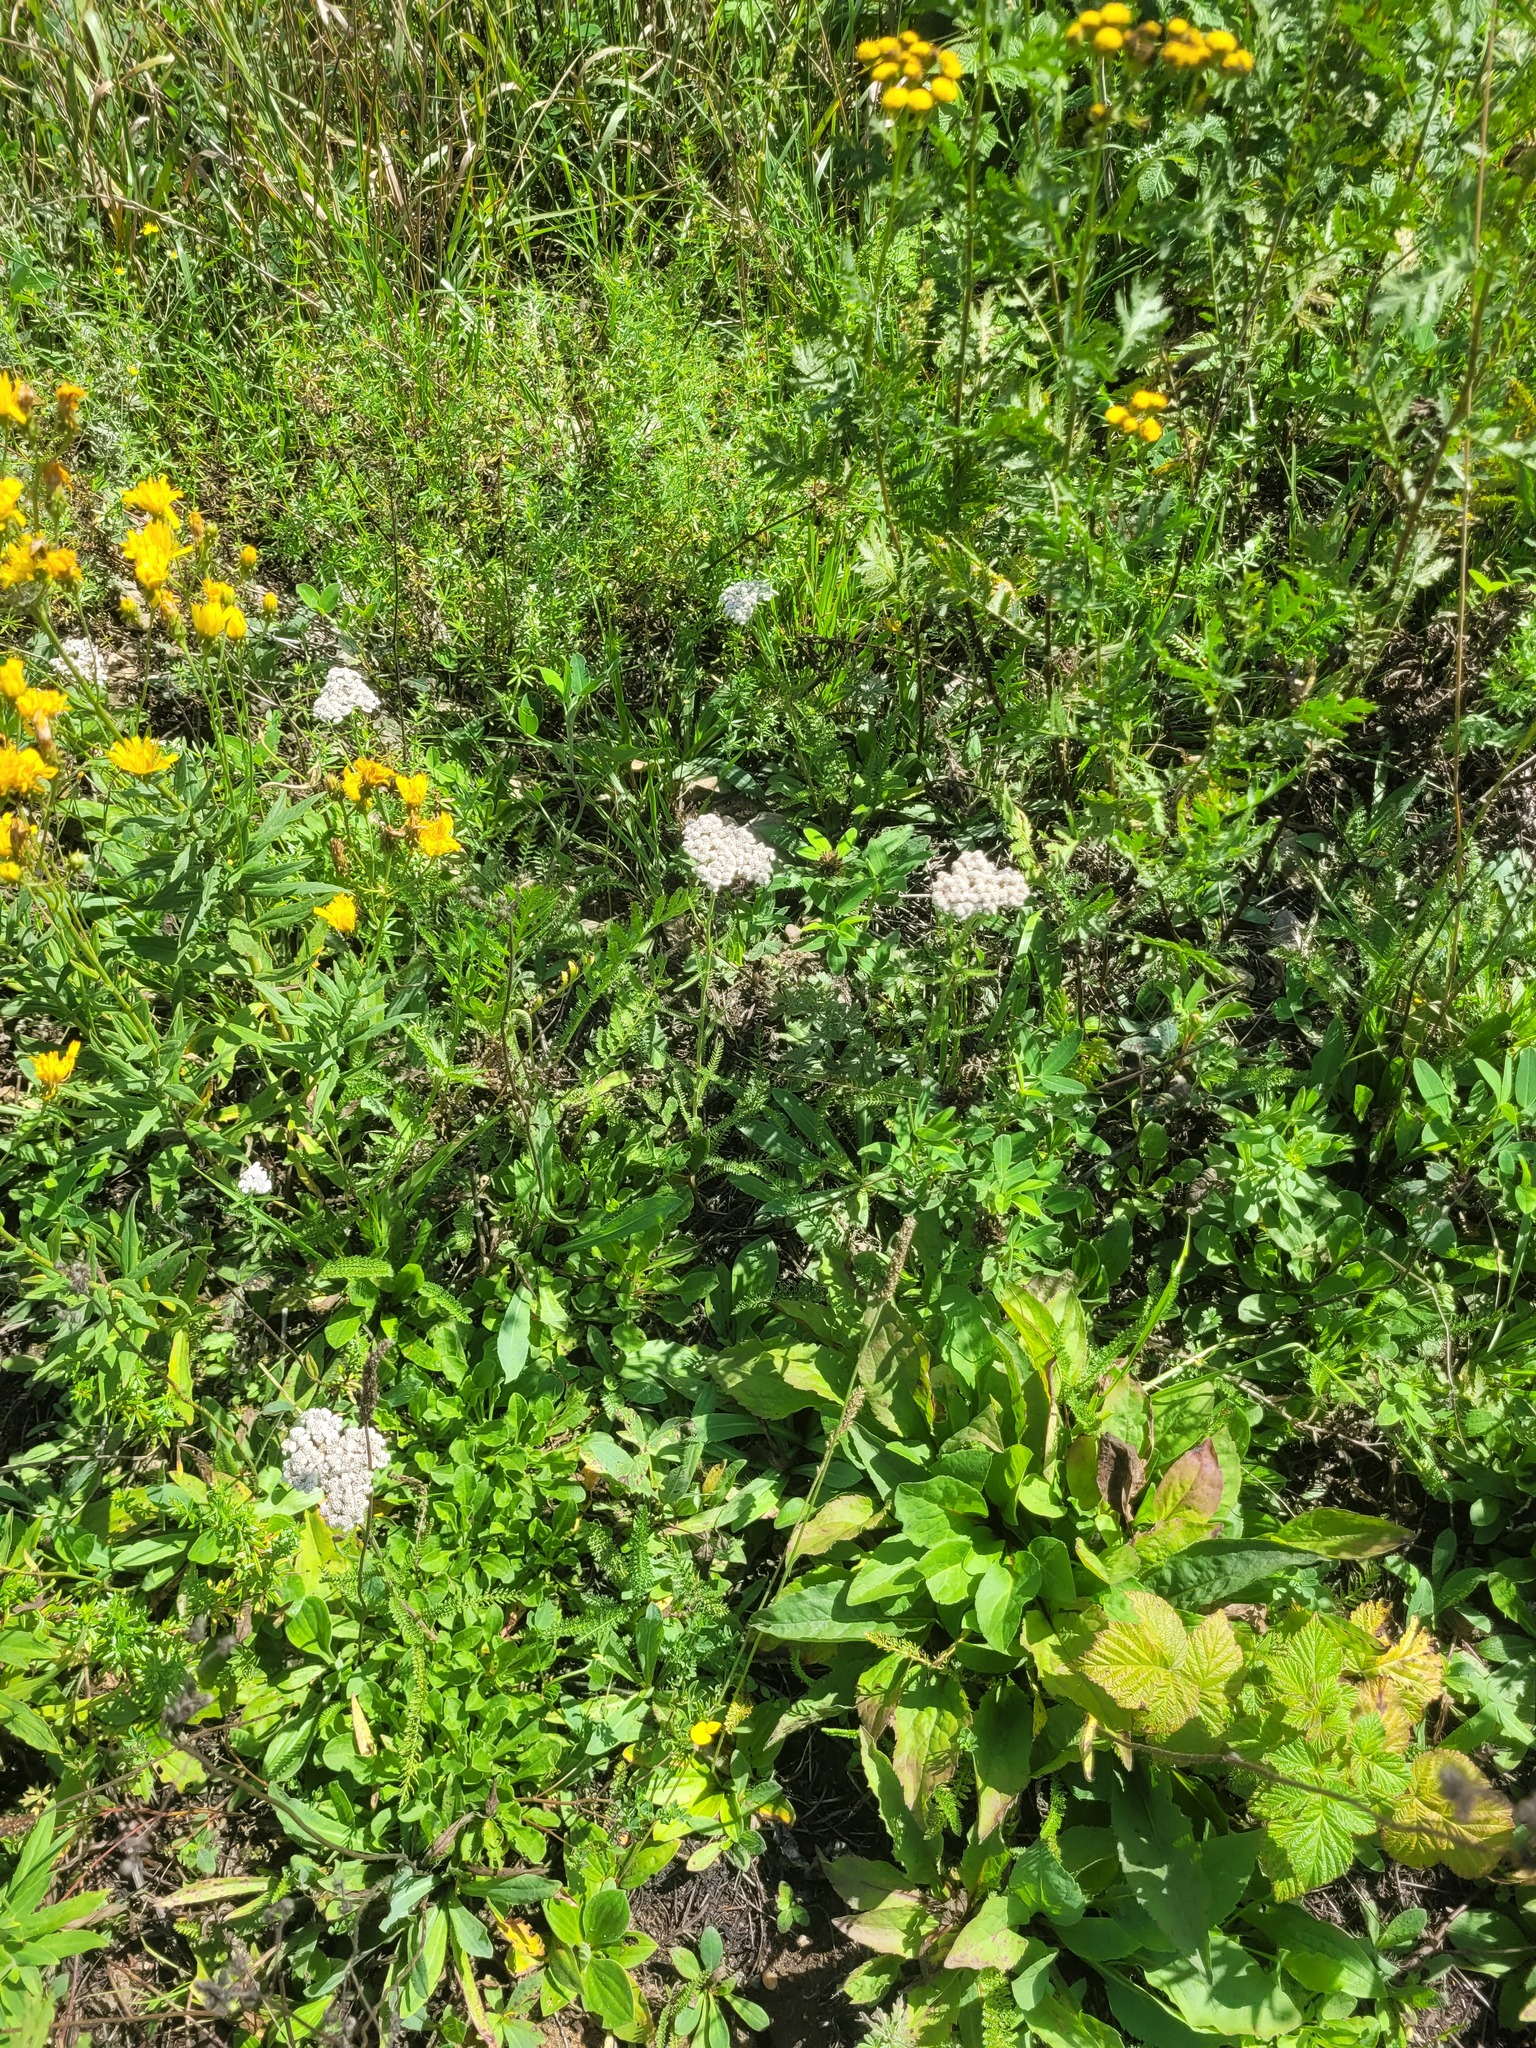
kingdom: Plantae
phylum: Tracheophyta
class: Magnoliopsida
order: Asterales
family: Asteraceae
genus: Achillea
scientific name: Achillea millefolium
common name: Yarrow
